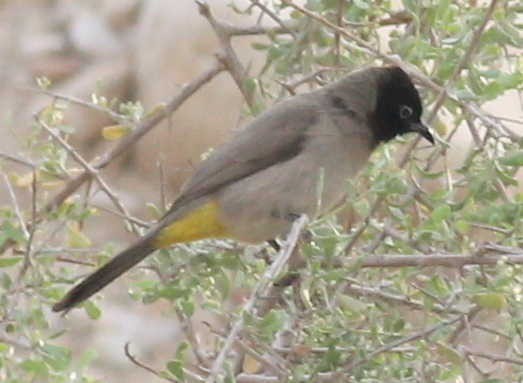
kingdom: Animalia
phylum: Chordata
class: Aves
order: Passeriformes
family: Pycnonotidae
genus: Pycnonotus
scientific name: Pycnonotus xanthopygos
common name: White-spectacled bulbul
